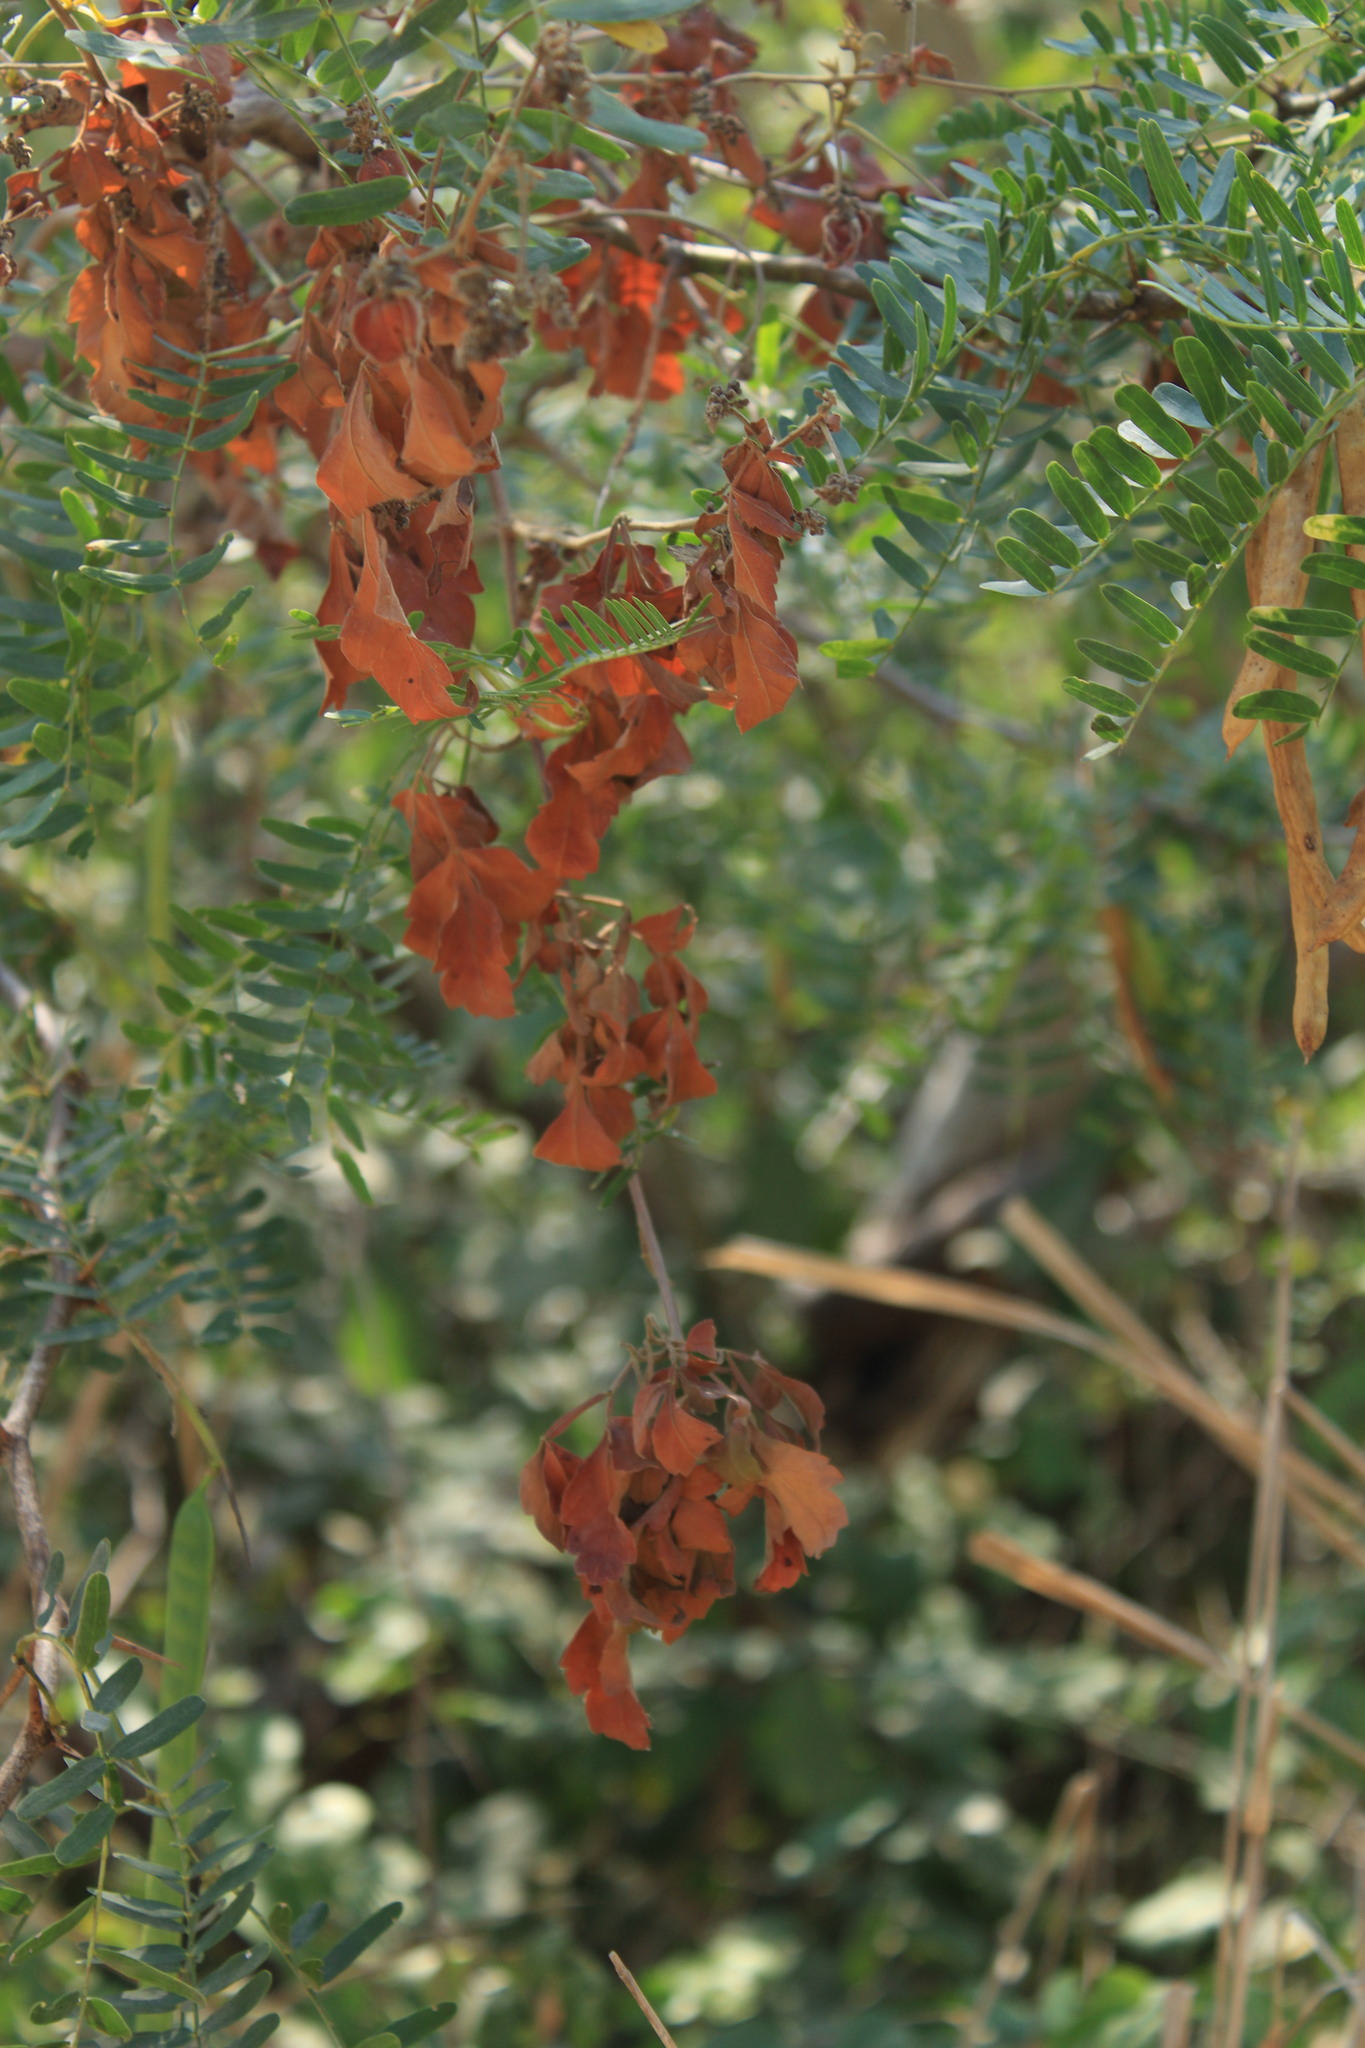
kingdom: Plantae
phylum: Tracheophyta
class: Magnoliopsida
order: Fabales
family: Fabaceae
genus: Prosopis
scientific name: Prosopis juliflora
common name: Mesquite
